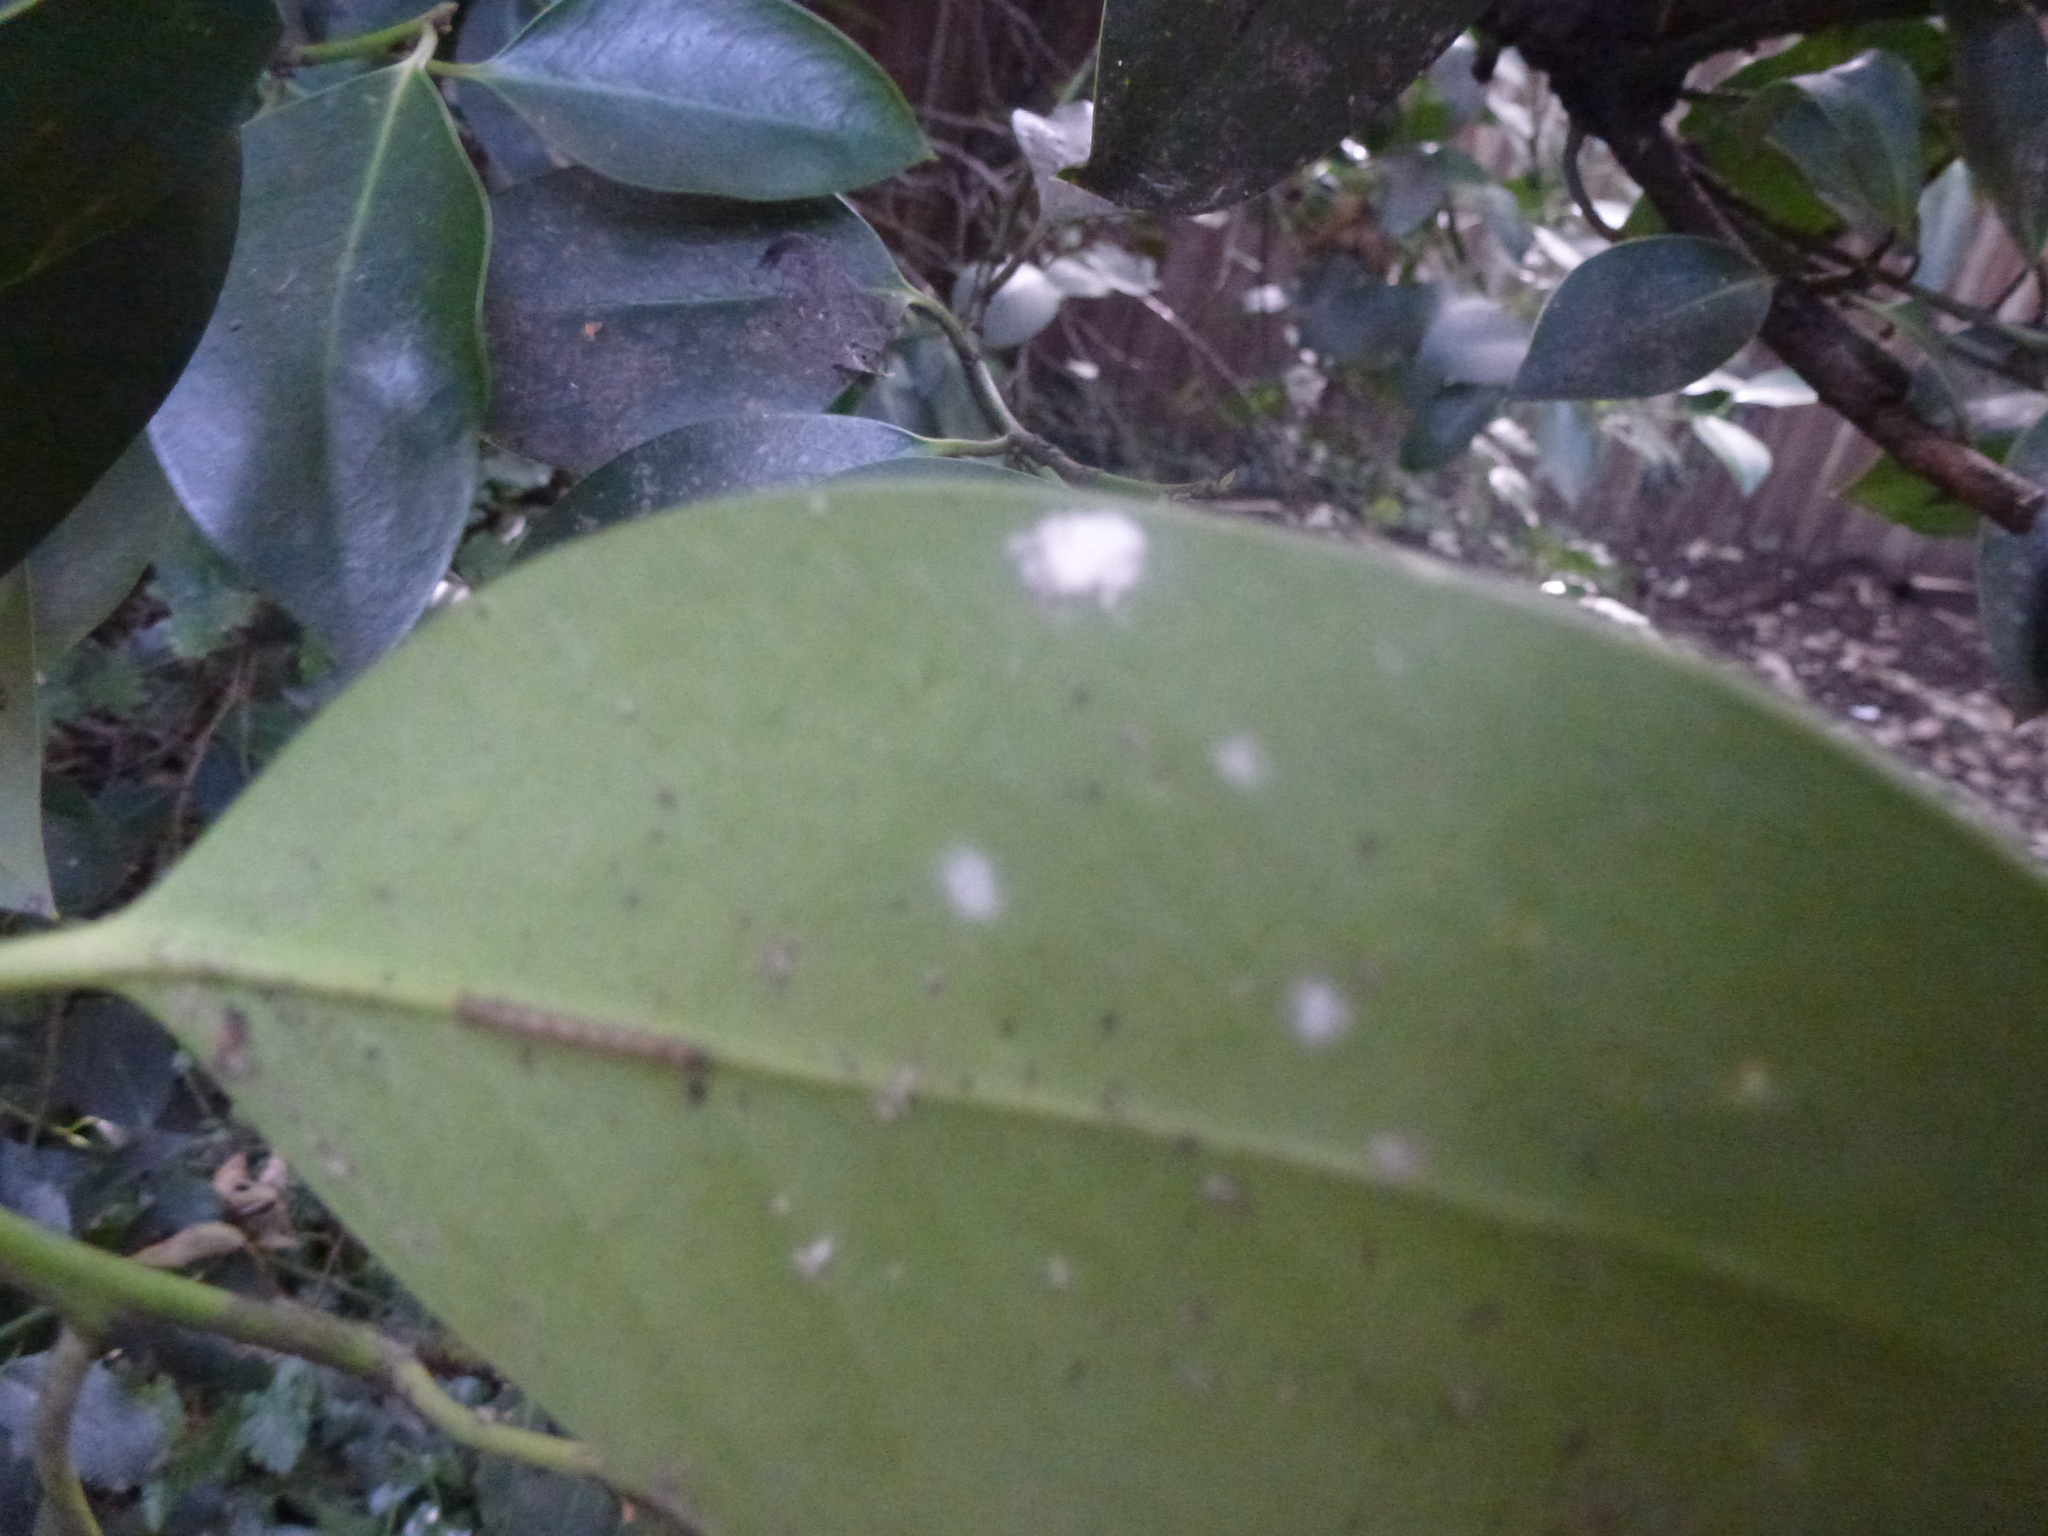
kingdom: Animalia
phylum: Arthropoda
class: Insecta
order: Hemiptera
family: Coccidae
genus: Pulvinaria
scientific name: Pulvinaria floccifera
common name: Cottony camellia scale
